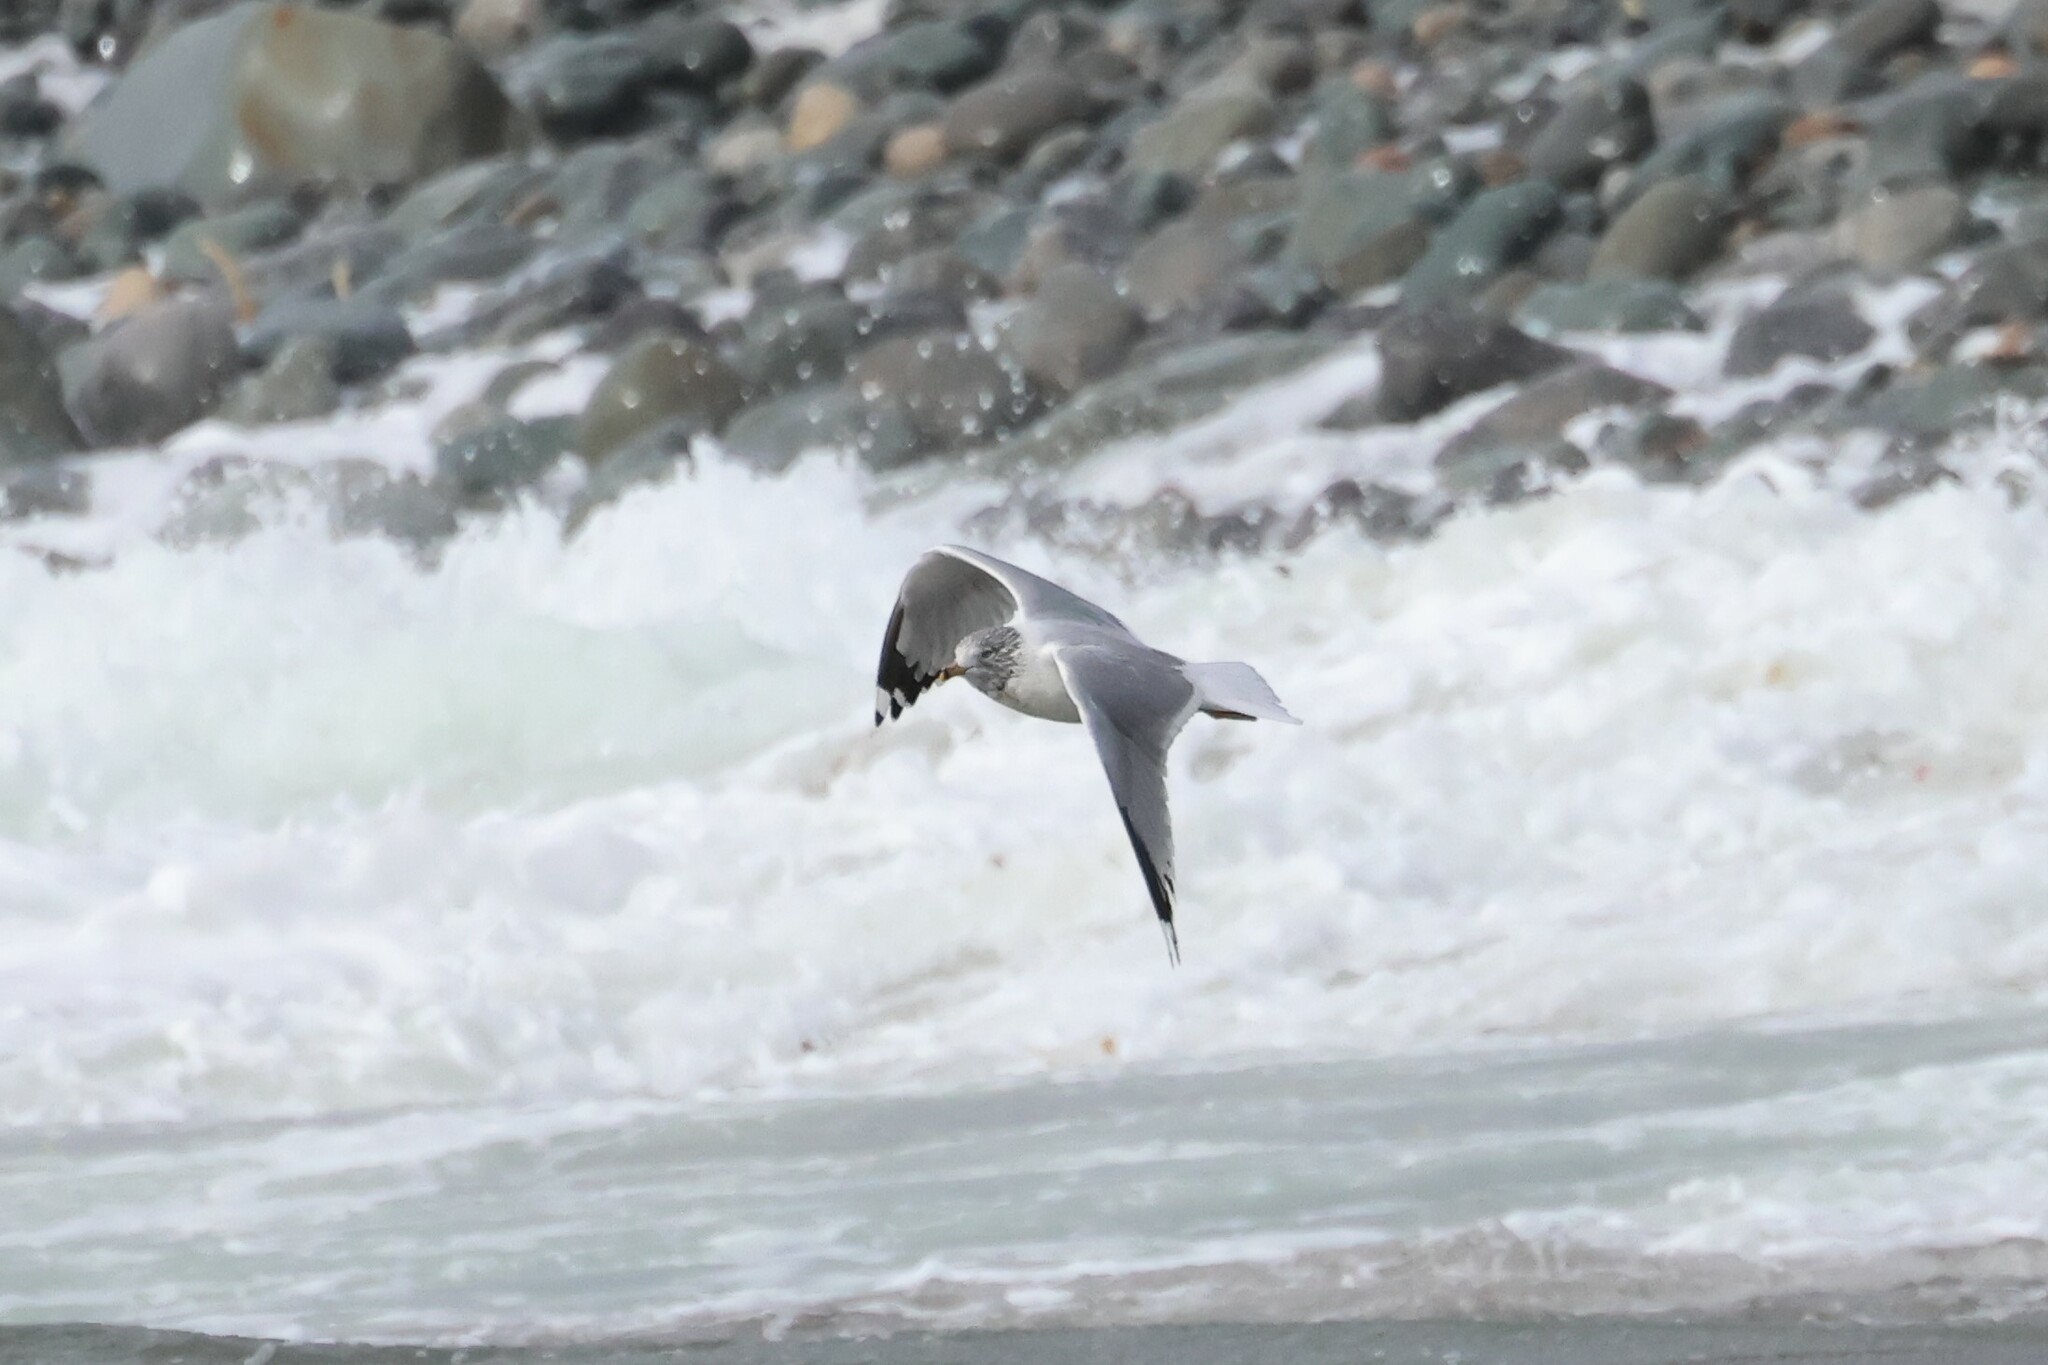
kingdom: Animalia
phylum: Chordata
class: Aves
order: Charadriiformes
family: Laridae
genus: Larus
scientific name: Larus delawarensis
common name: Ring-billed gull
